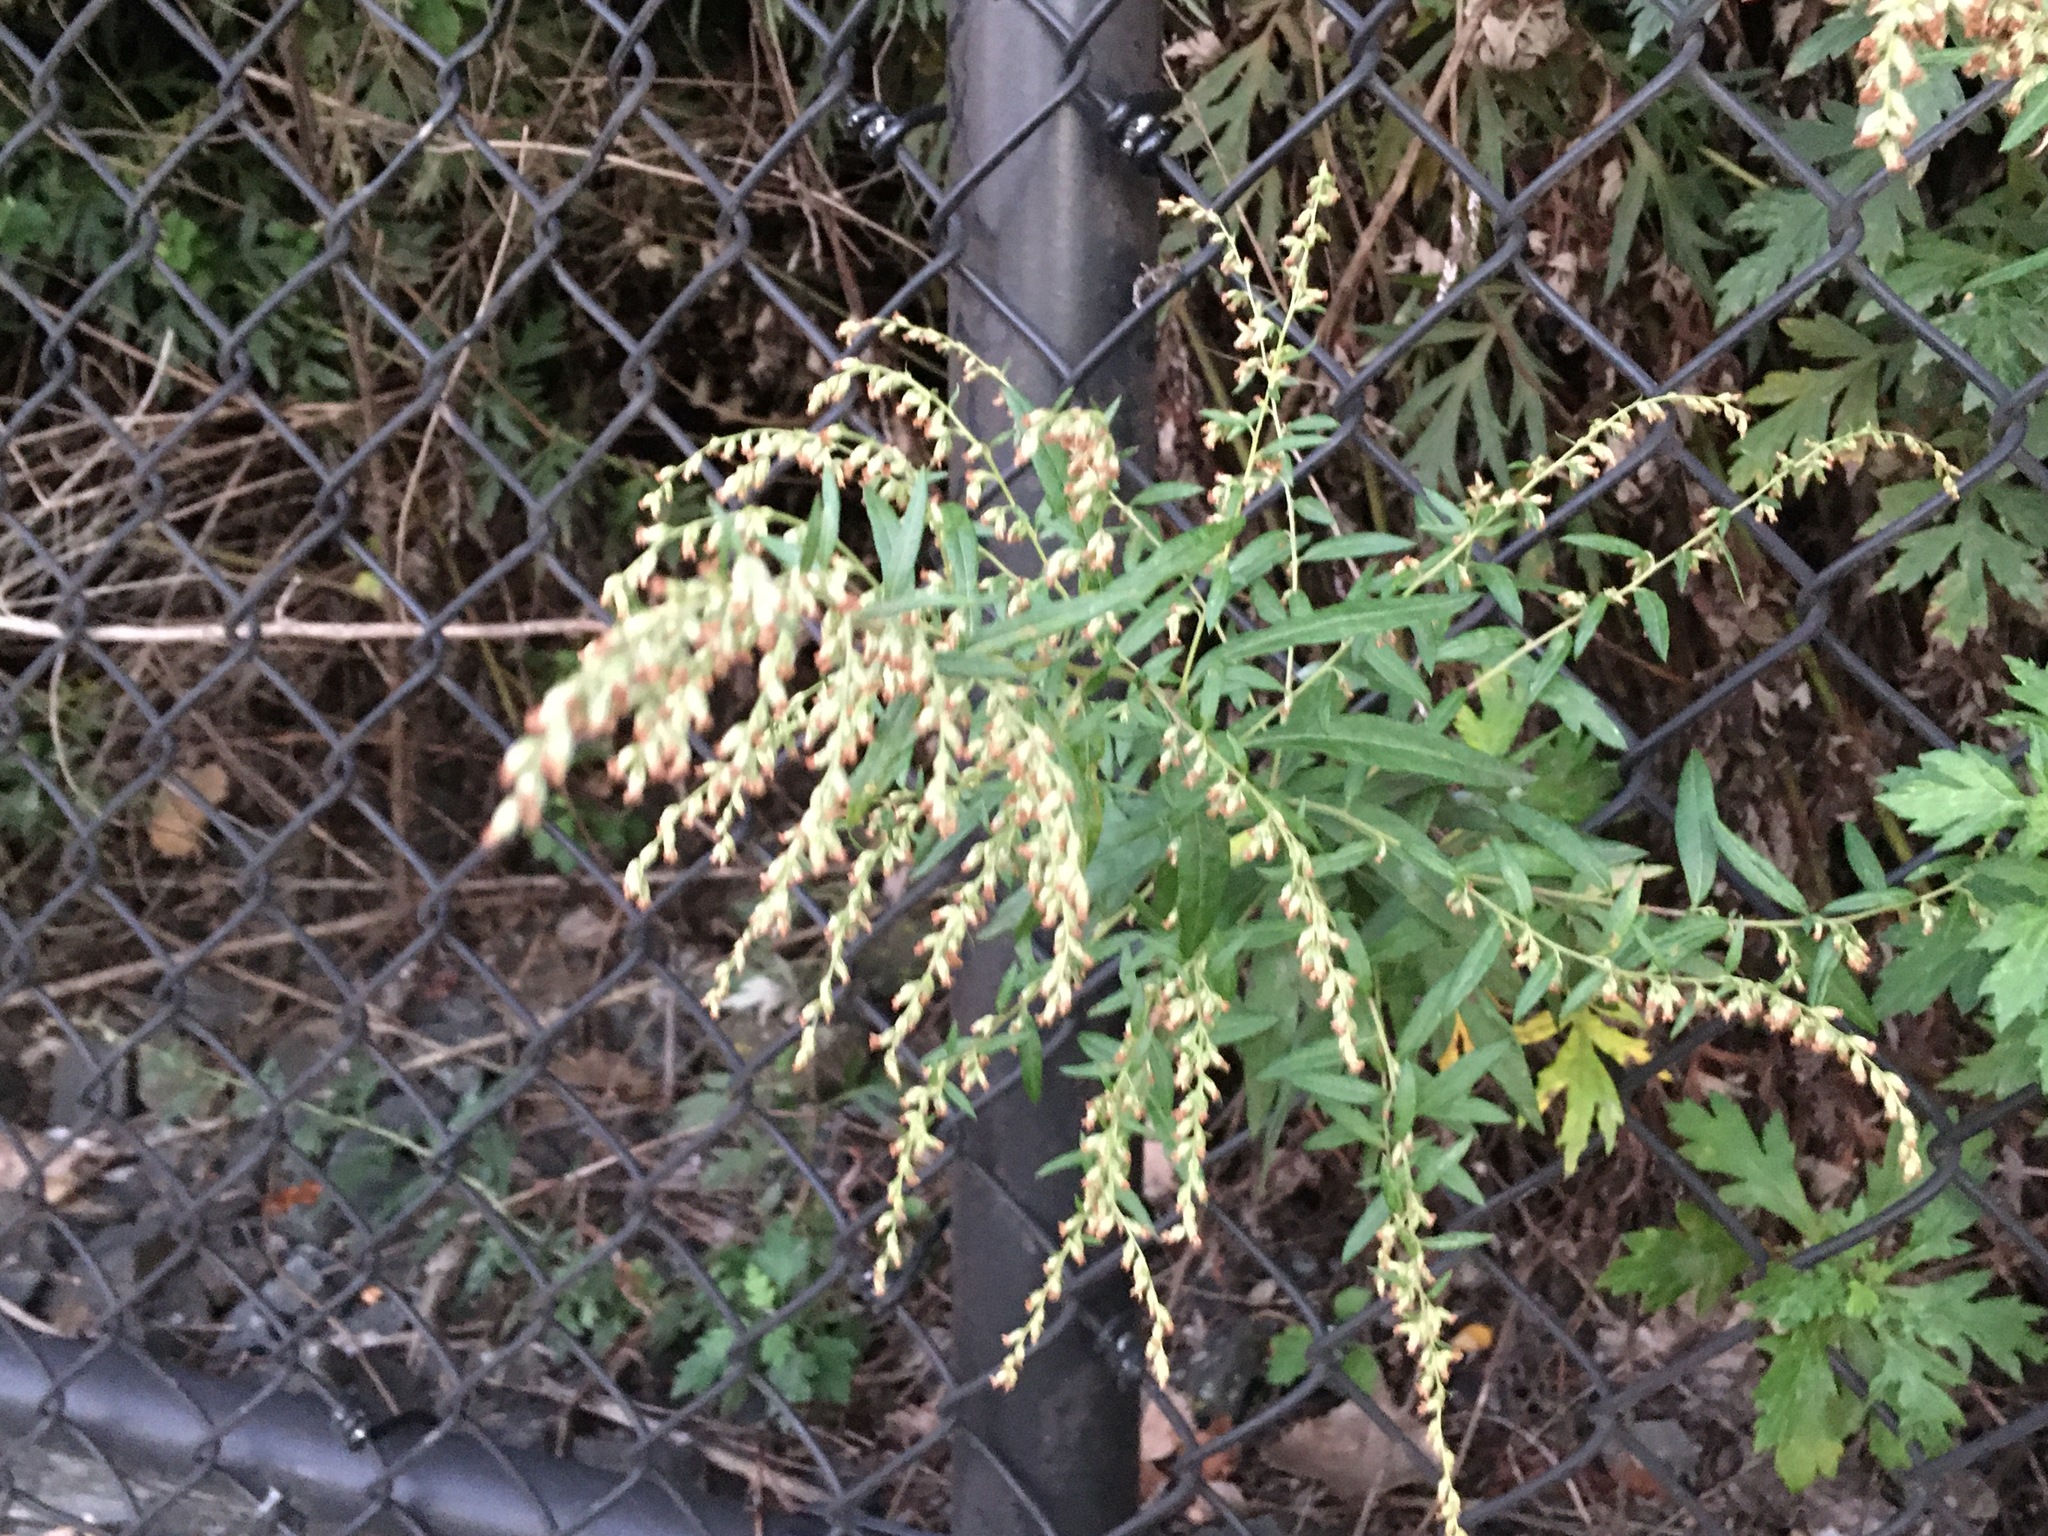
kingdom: Plantae
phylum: Tracheophyta
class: Magnoliopsida
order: Asterales
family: Asteraceae
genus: Artemisia
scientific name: Artemisia vulgaris
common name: Mugwort
